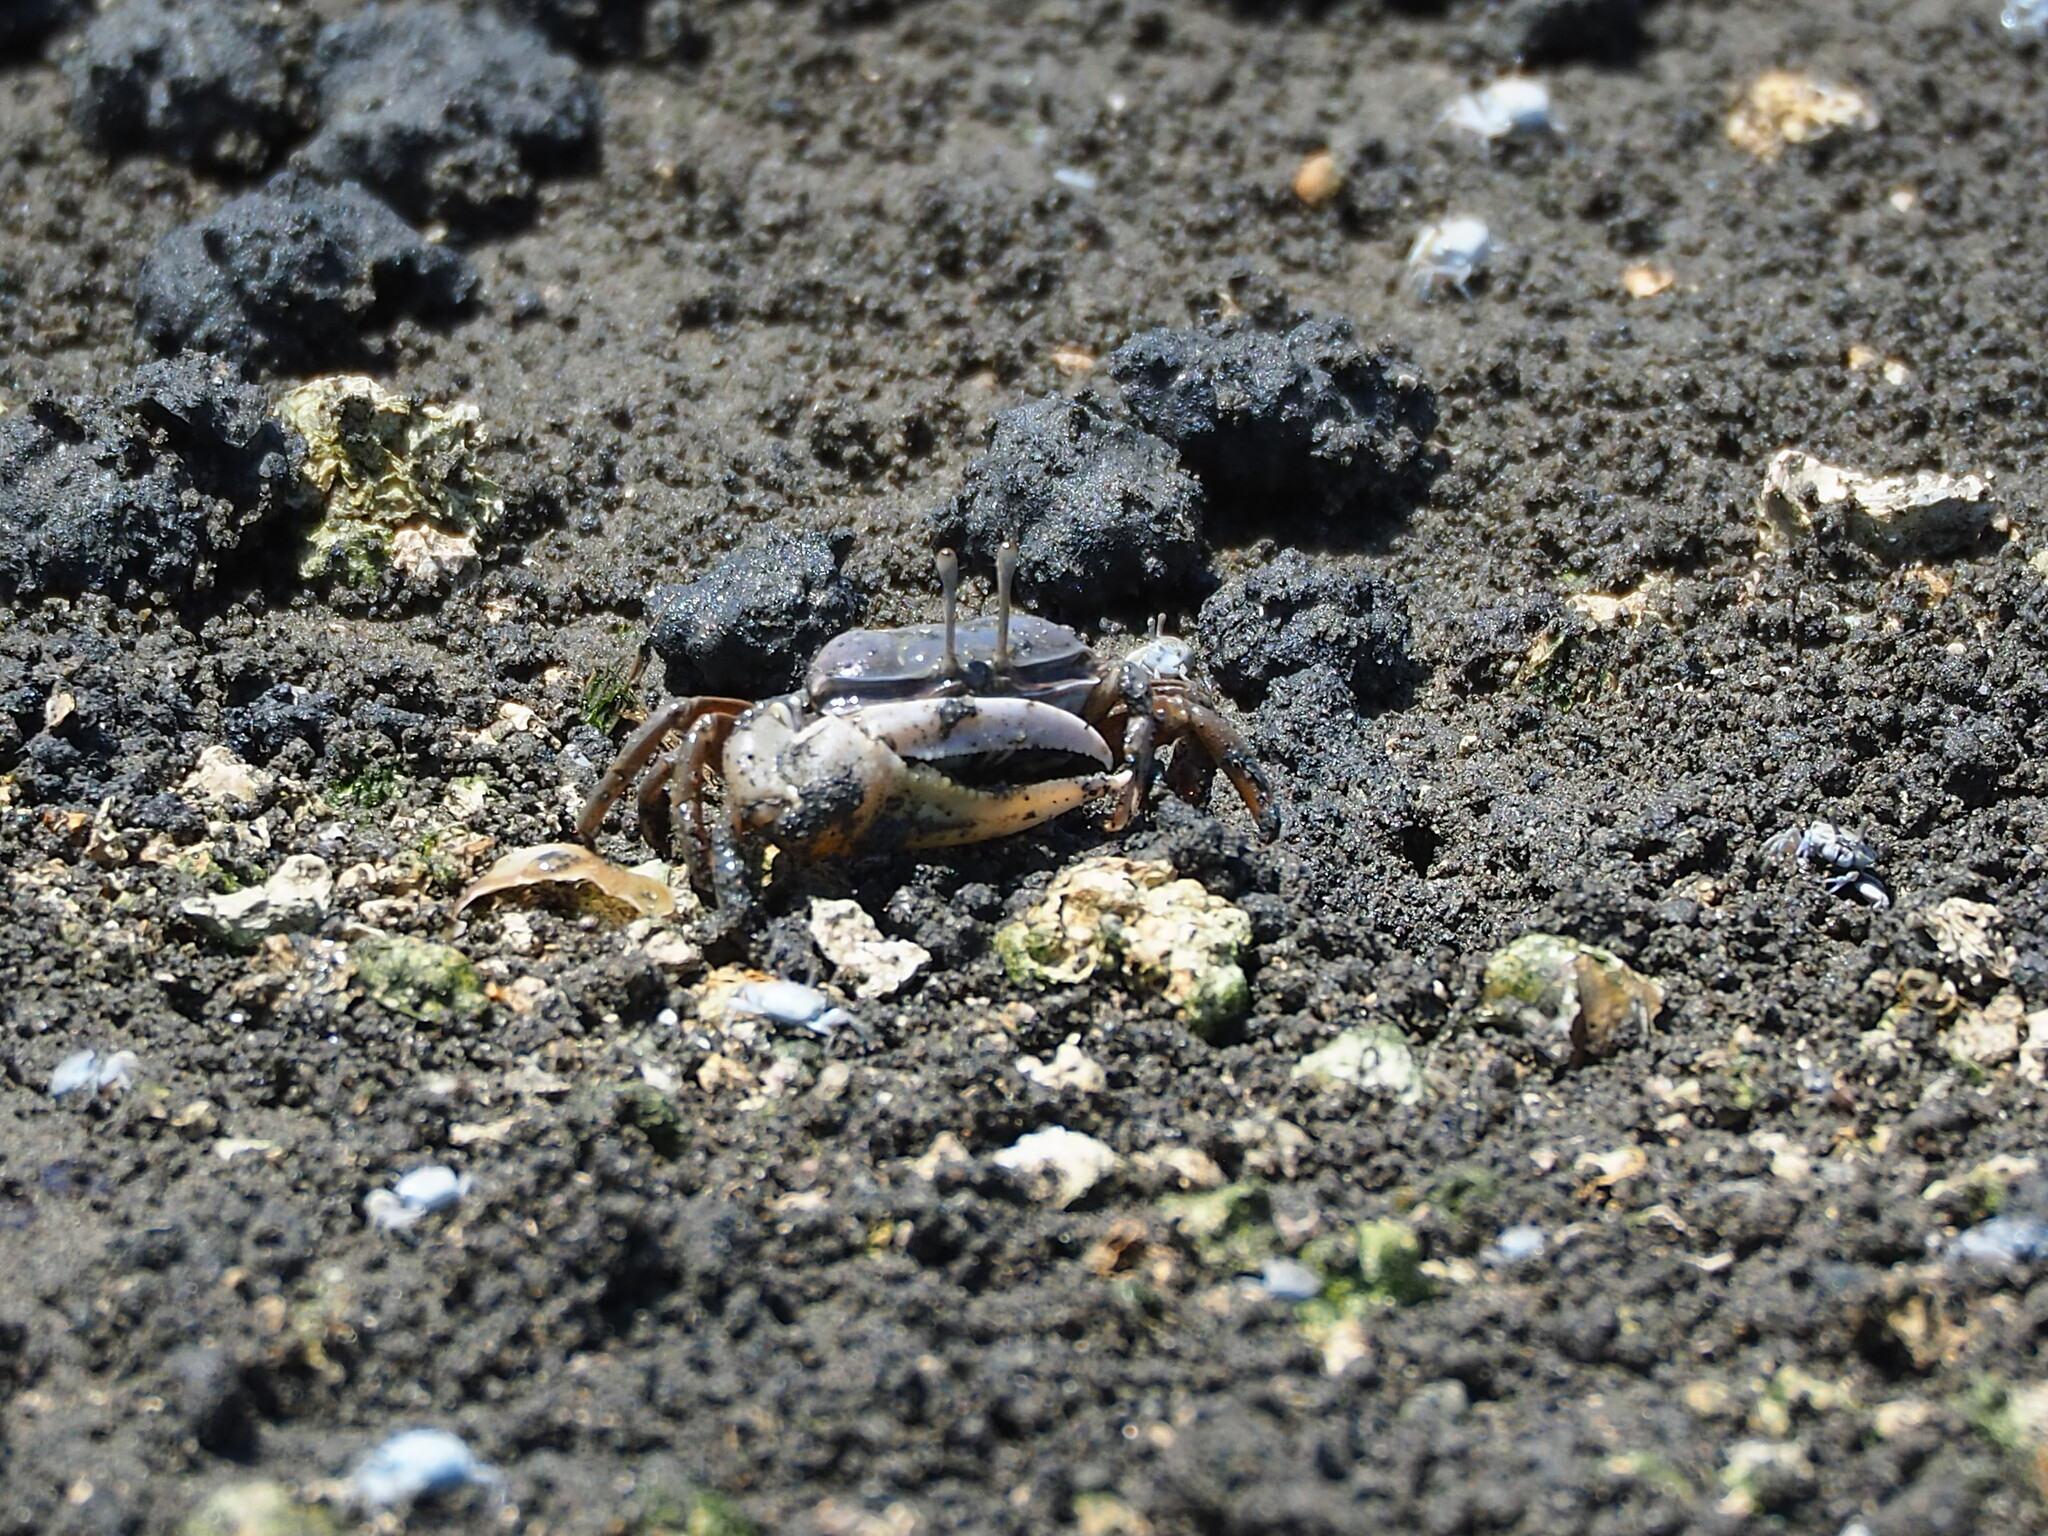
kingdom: Animalia
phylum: Arthropoda
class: Malacostraca
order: Decapoda
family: Ocypodidae
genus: Gelasimus
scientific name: Gelasimus borealis
